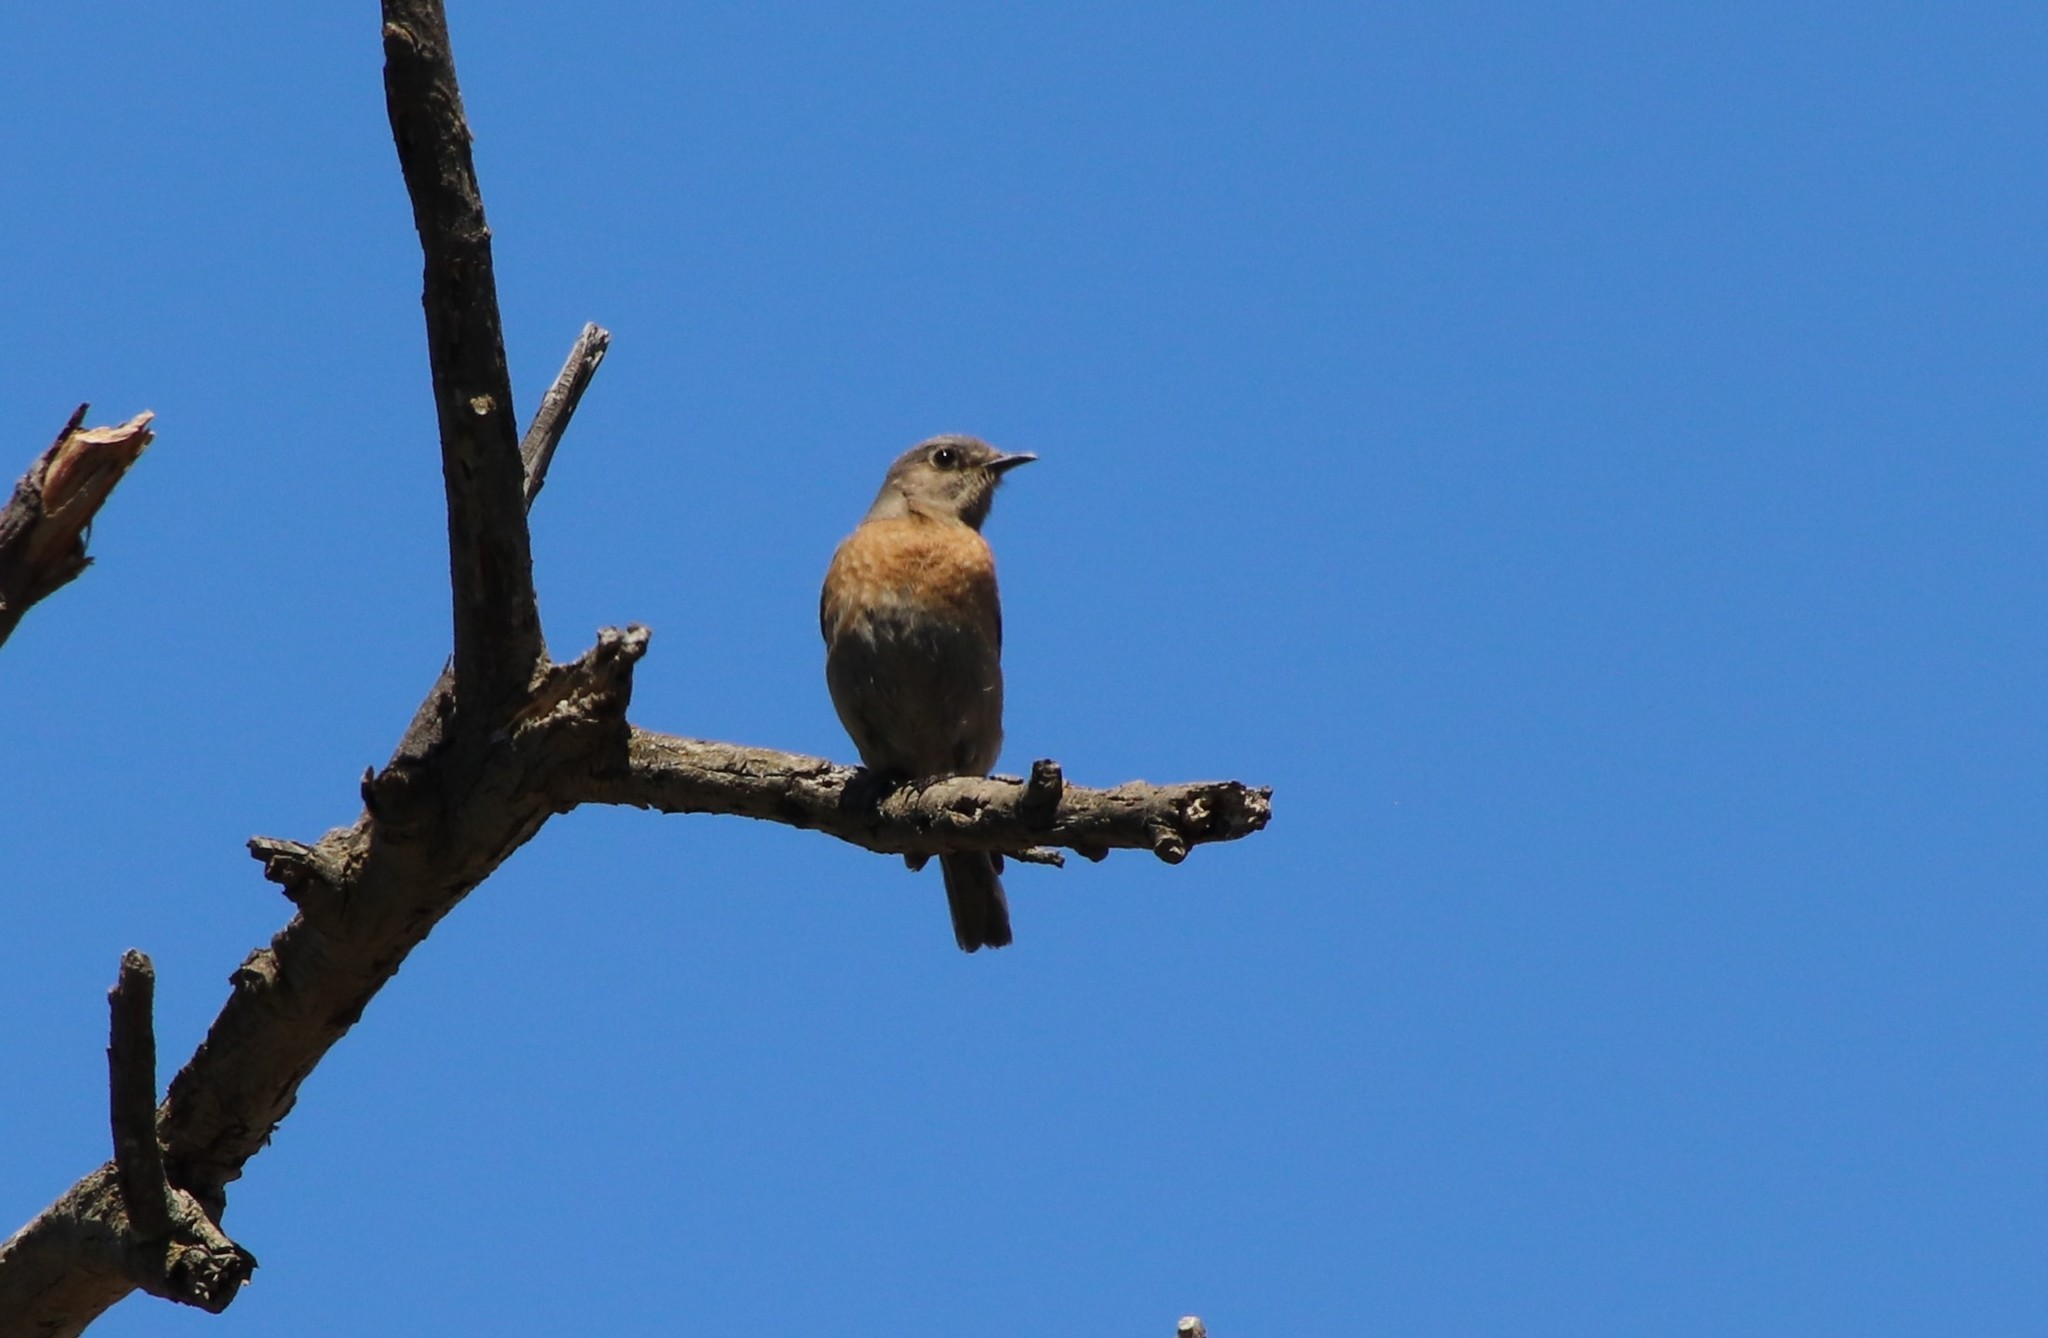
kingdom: Animalia
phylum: Chordata
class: Aves
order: Passeriformes
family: Turdidae
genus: Sialia
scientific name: Sialia mexicana
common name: Western bluebird
